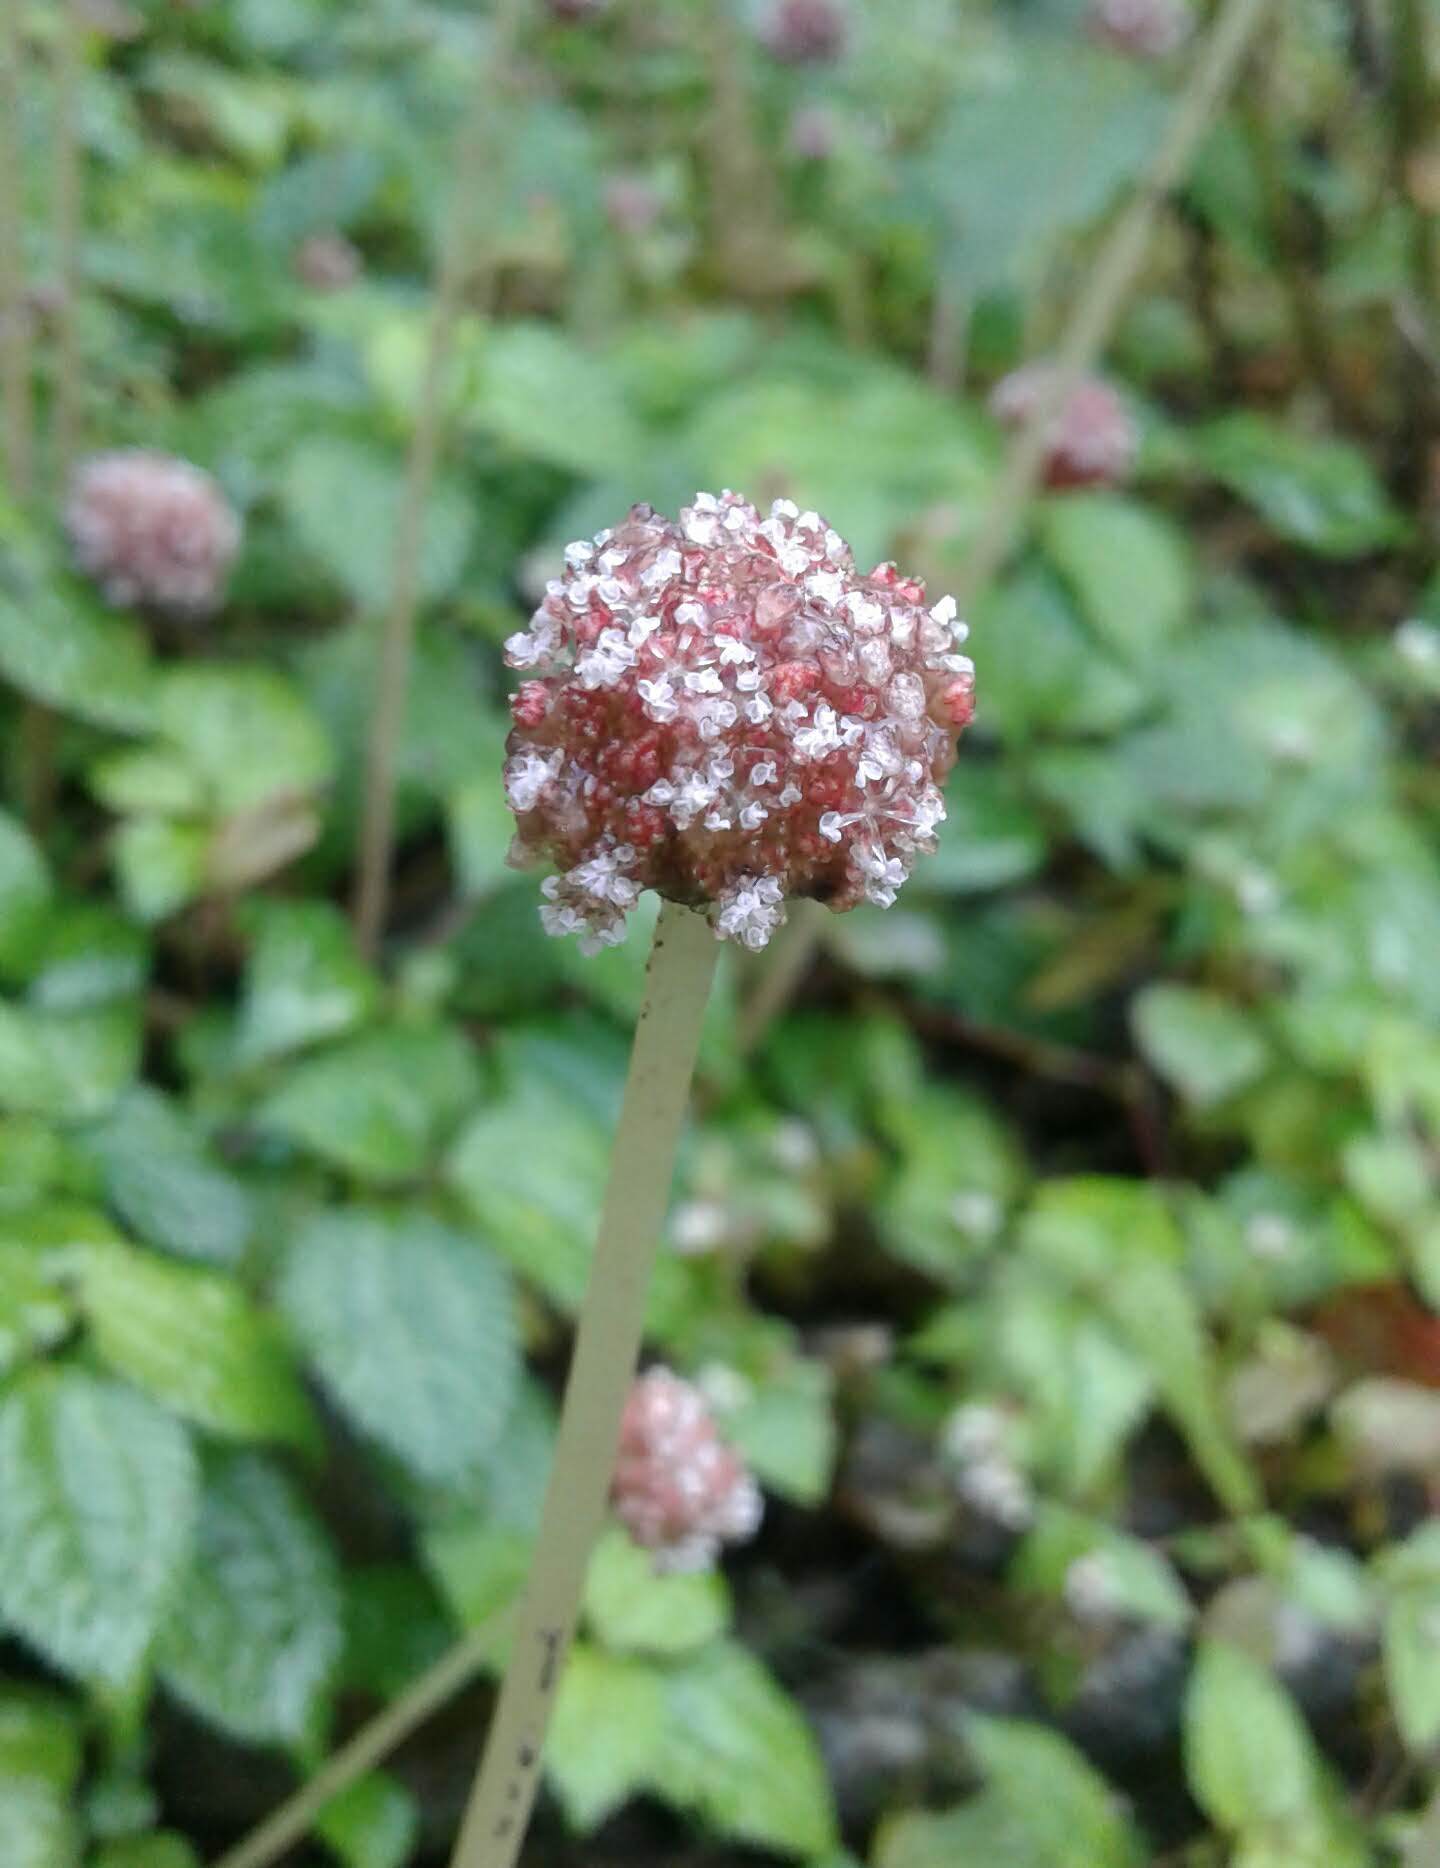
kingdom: Plantae
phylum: Tracheophyta
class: Magnoliopsida
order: Rosales
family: Urticaceae
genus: Lecanthus
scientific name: Lecanthus peduncularis
